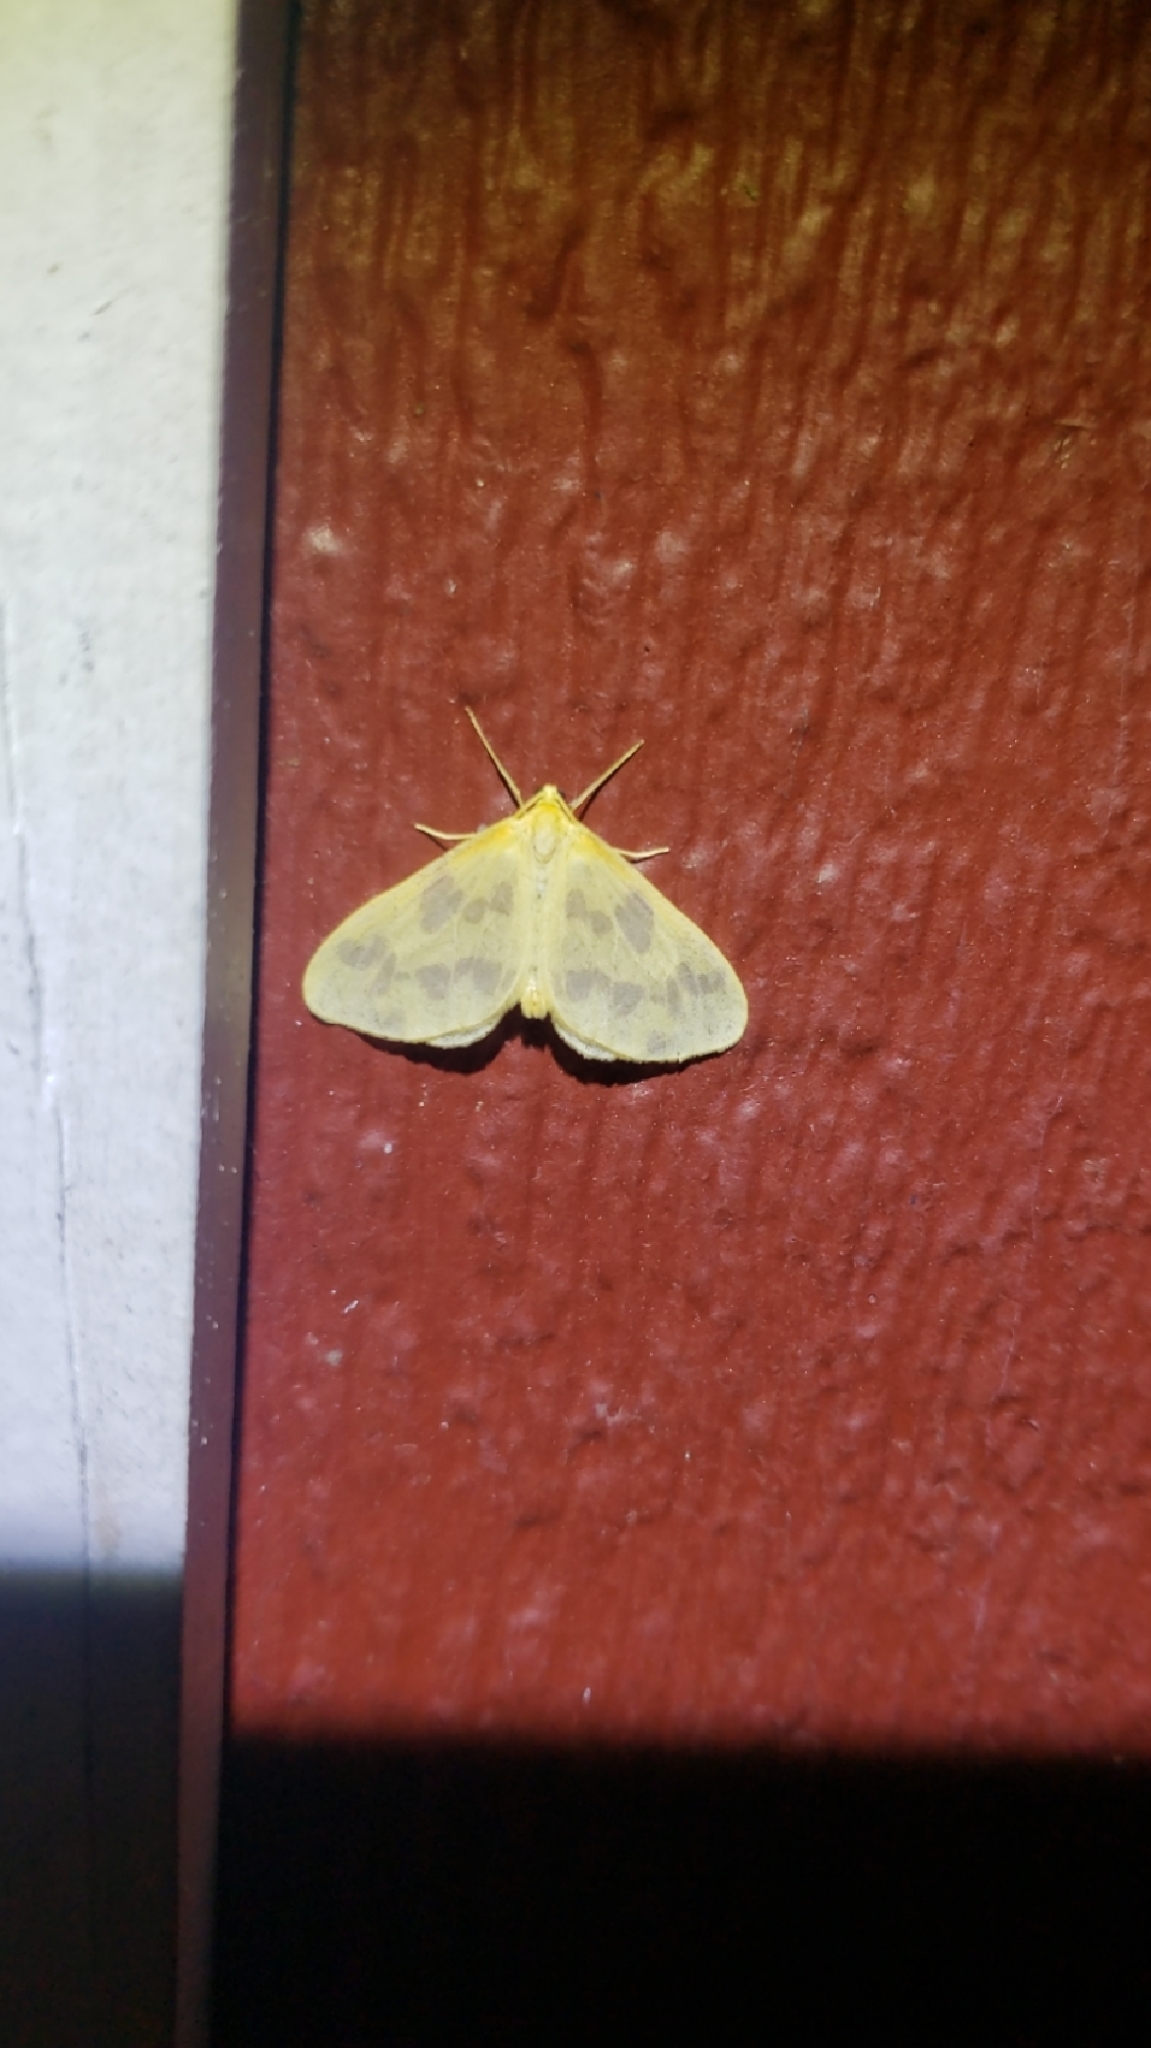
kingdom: Animalia
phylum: Arthropoda
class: Insecta
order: Lepidoptera
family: Geometridae
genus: Eubaphe
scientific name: Eubaphe mendica
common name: Beggar
